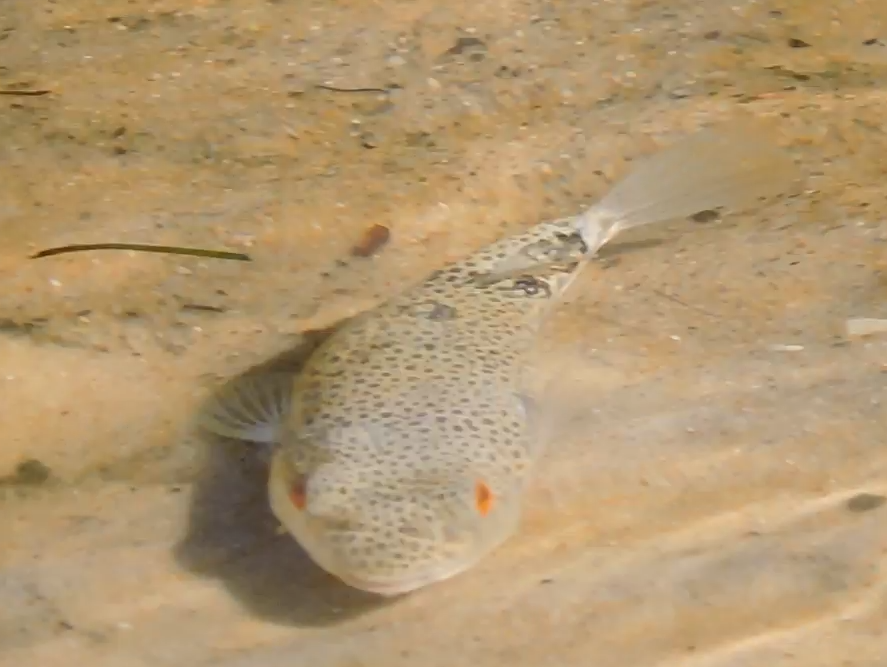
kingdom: Animalia
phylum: Chordata
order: Tetraodontiformes
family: Tetraodontidae
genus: Tetractenos
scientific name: Tetractenos hamiltoni
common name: Common toadfish
